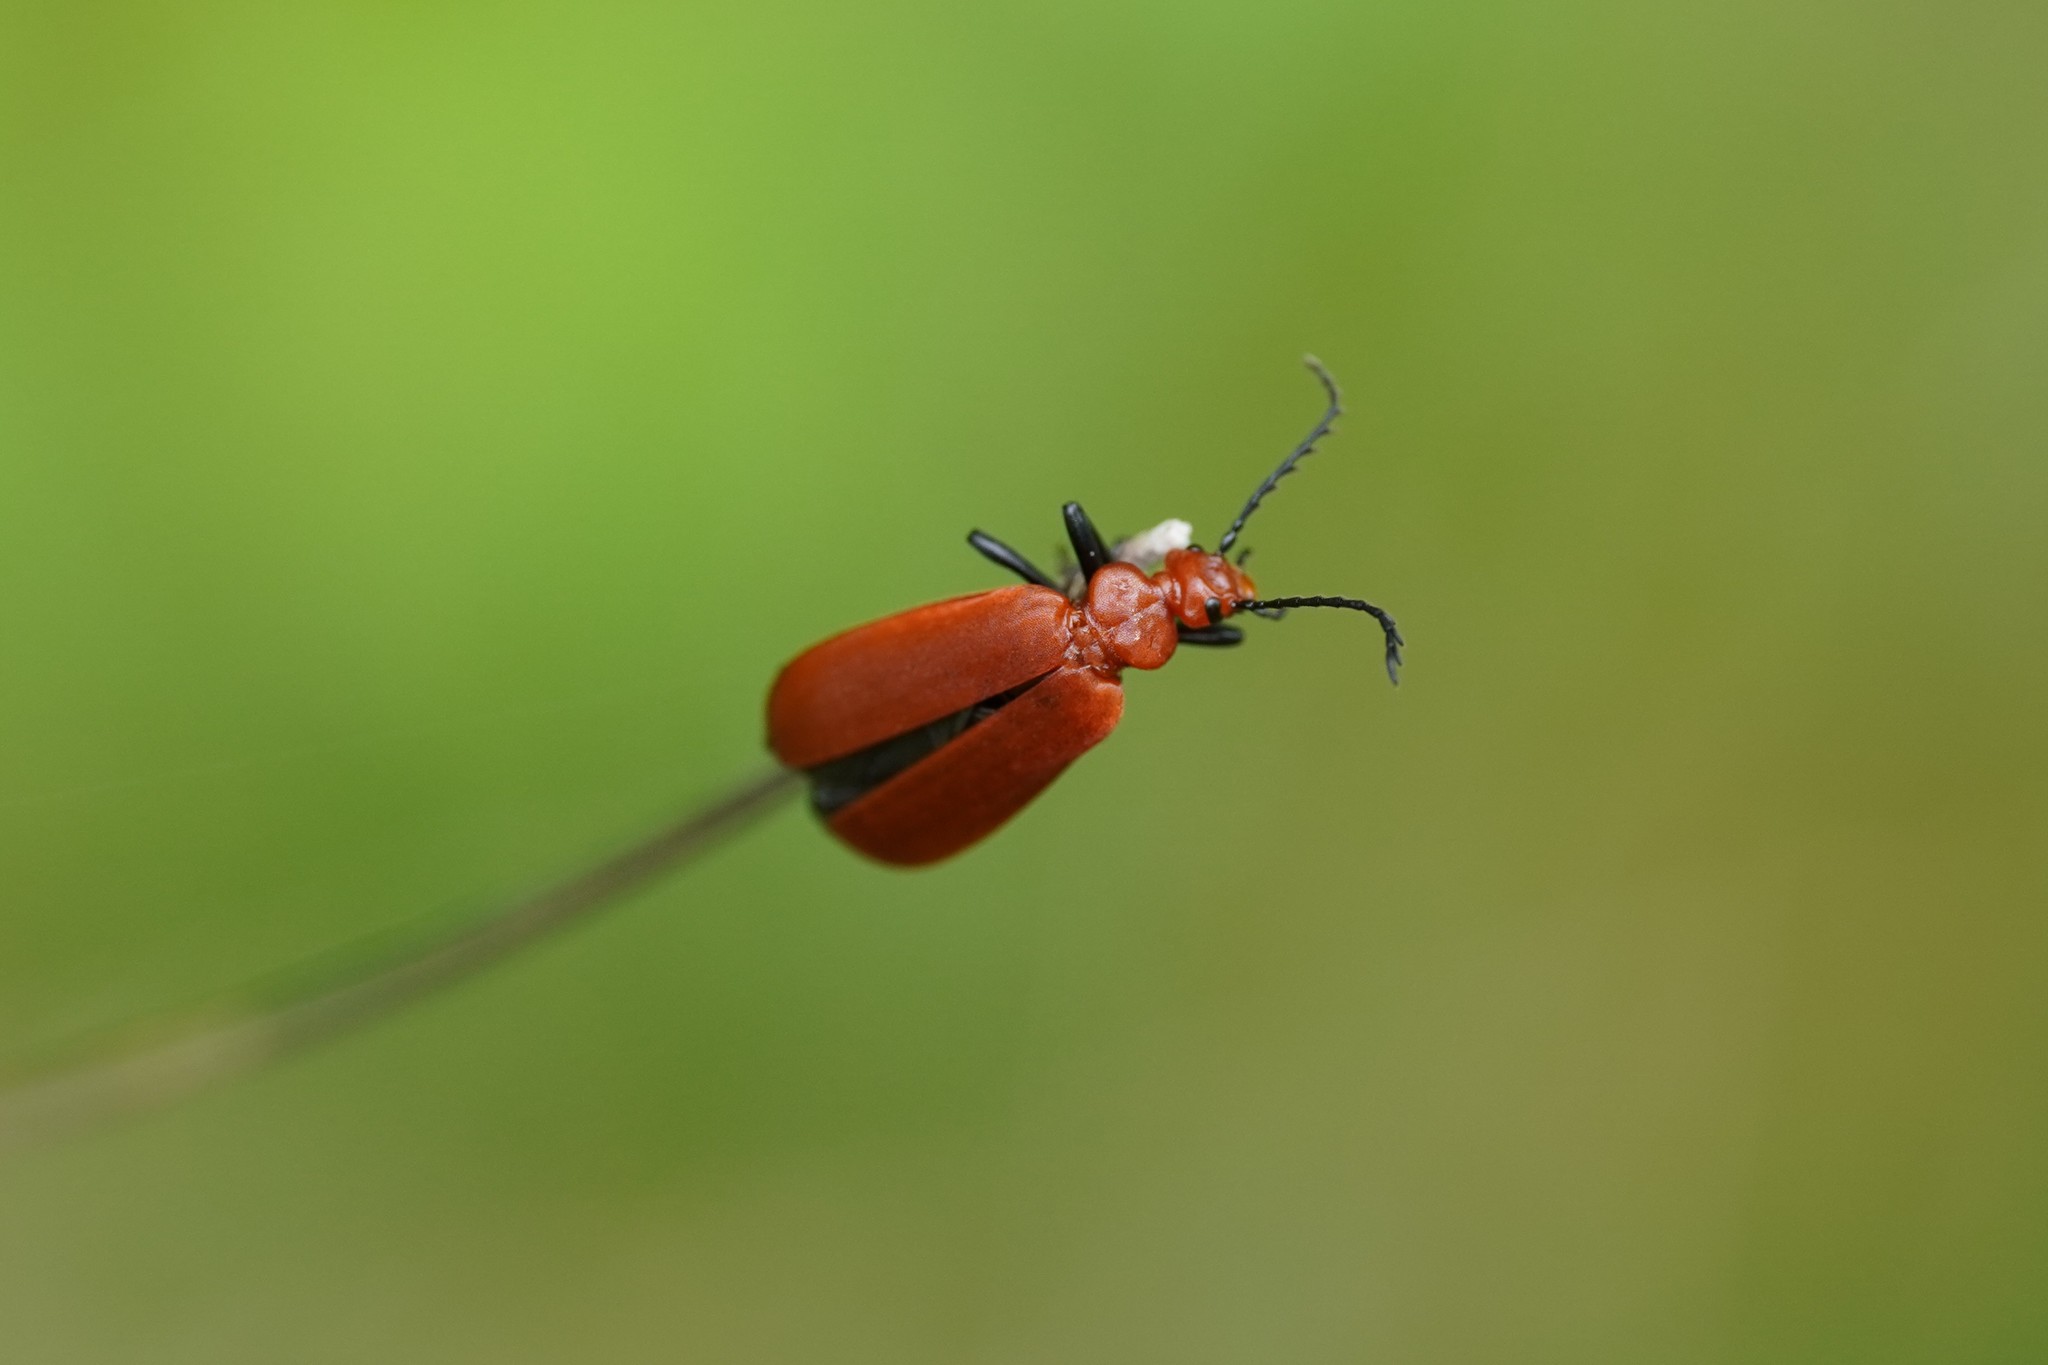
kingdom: Animalia
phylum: Arthropoda
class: Insecta
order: Coleoptera
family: Pyrochroidae
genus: Pyrochroa
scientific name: Pyrochroa serraticornis
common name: Red-headed cardinal beetle
